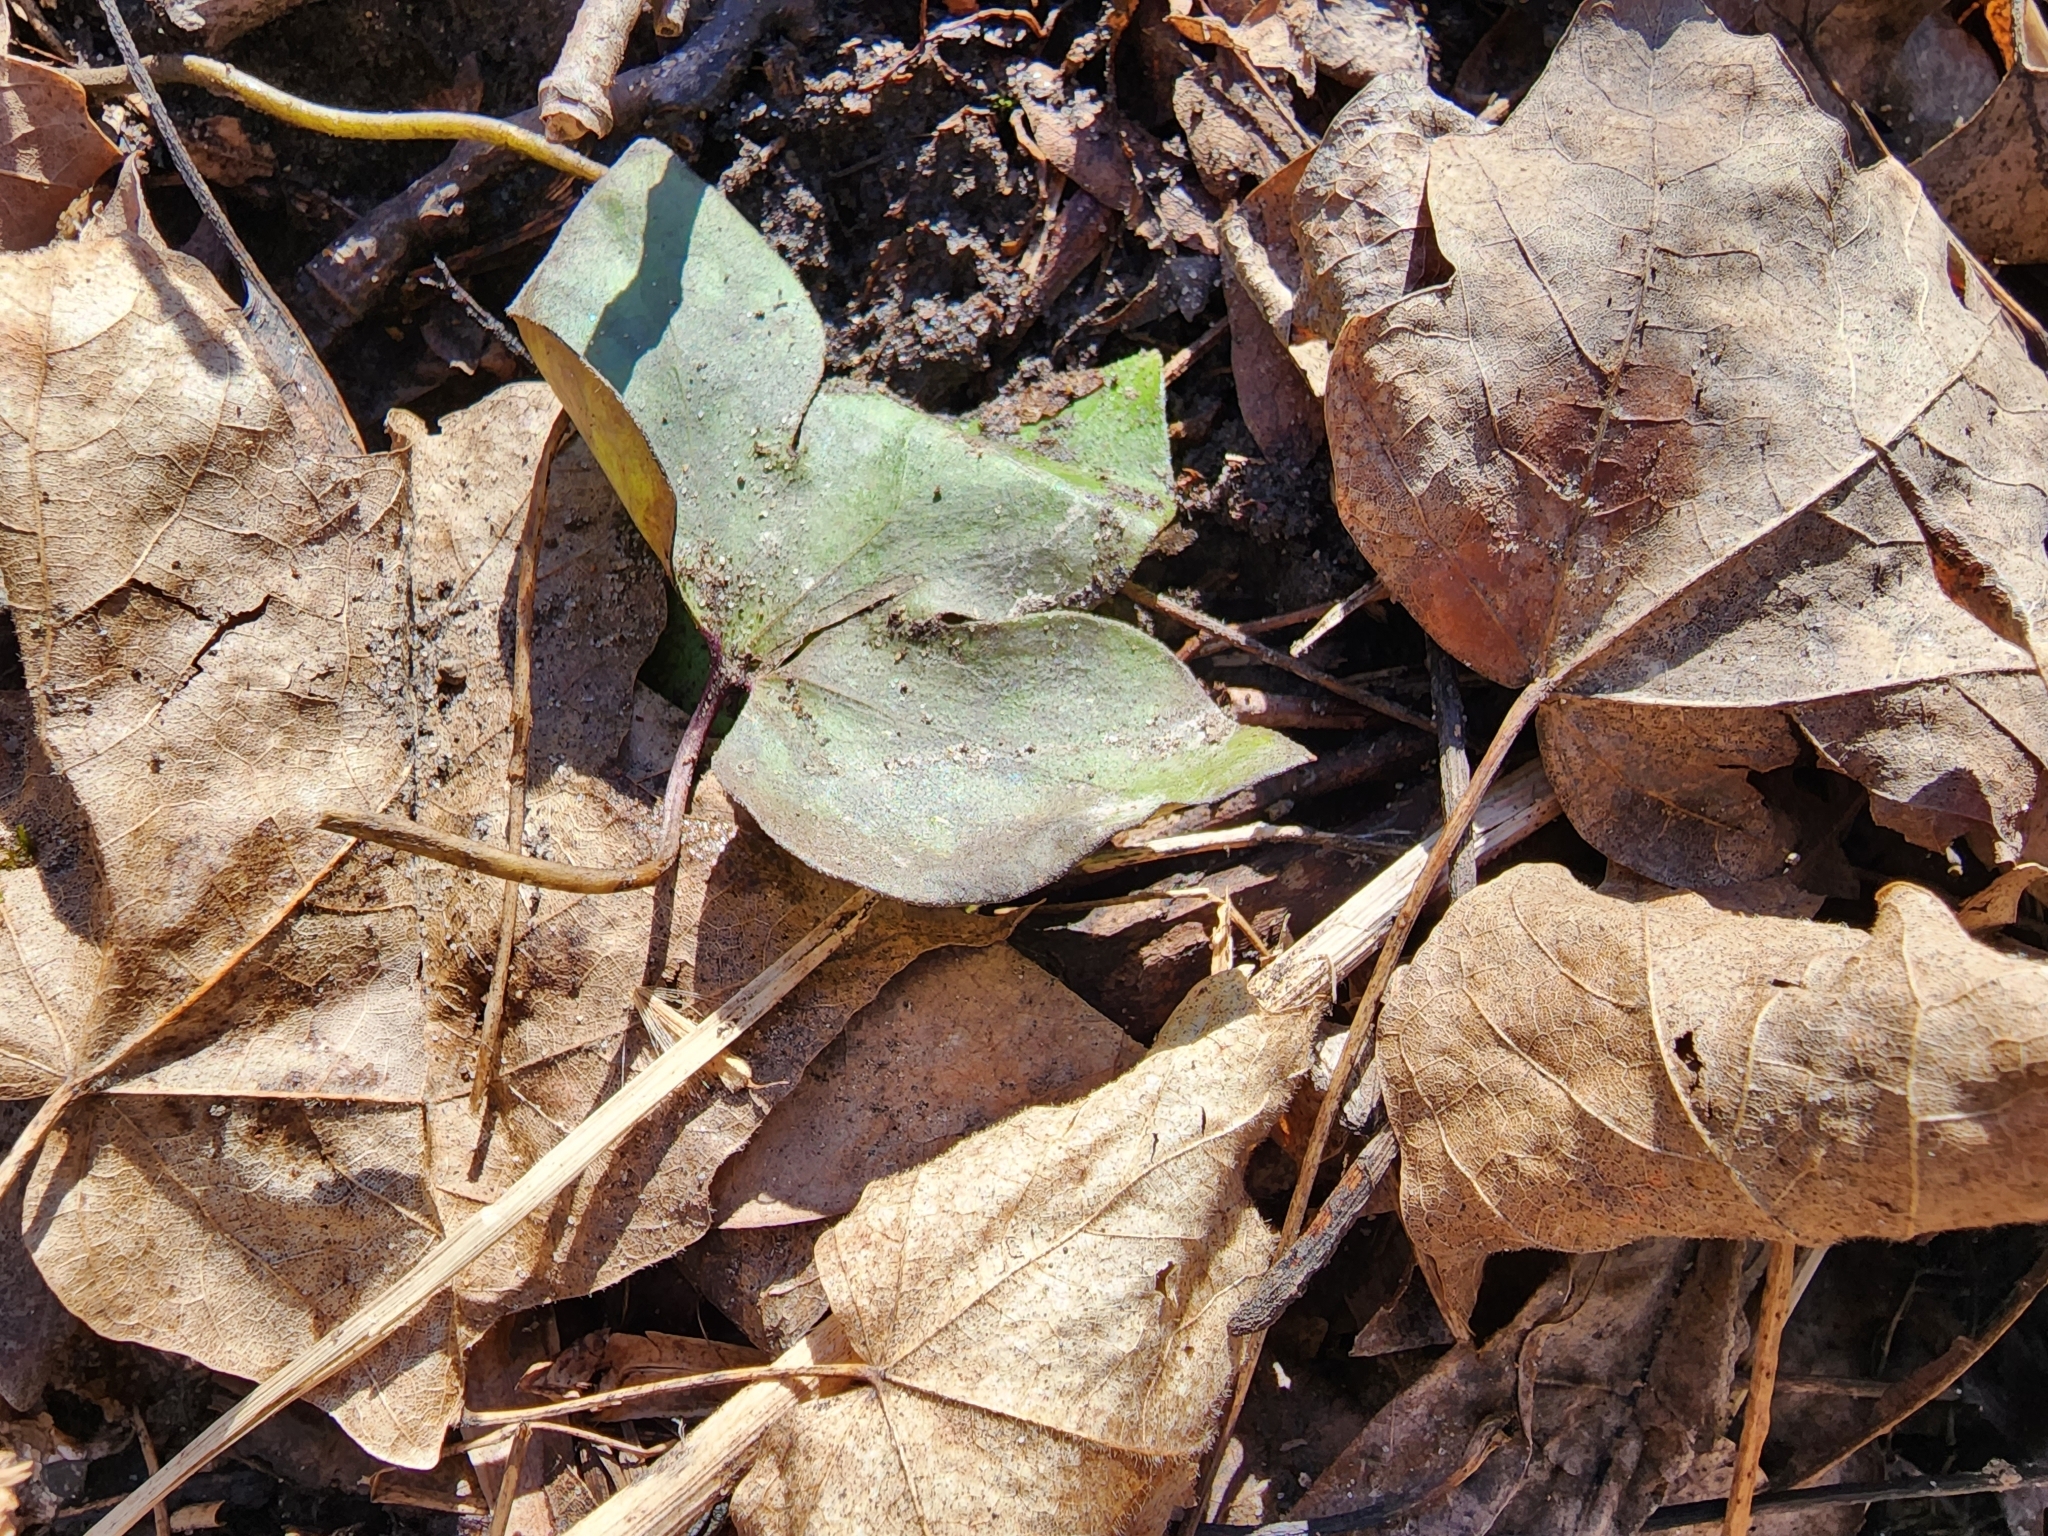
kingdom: Plantae
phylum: Tracheophyta
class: Magnoliopsida
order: Ranunculales
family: Ranunculaceae
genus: Hepatica
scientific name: Hepatica acutiloba
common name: Sharp-lobed hepatica
